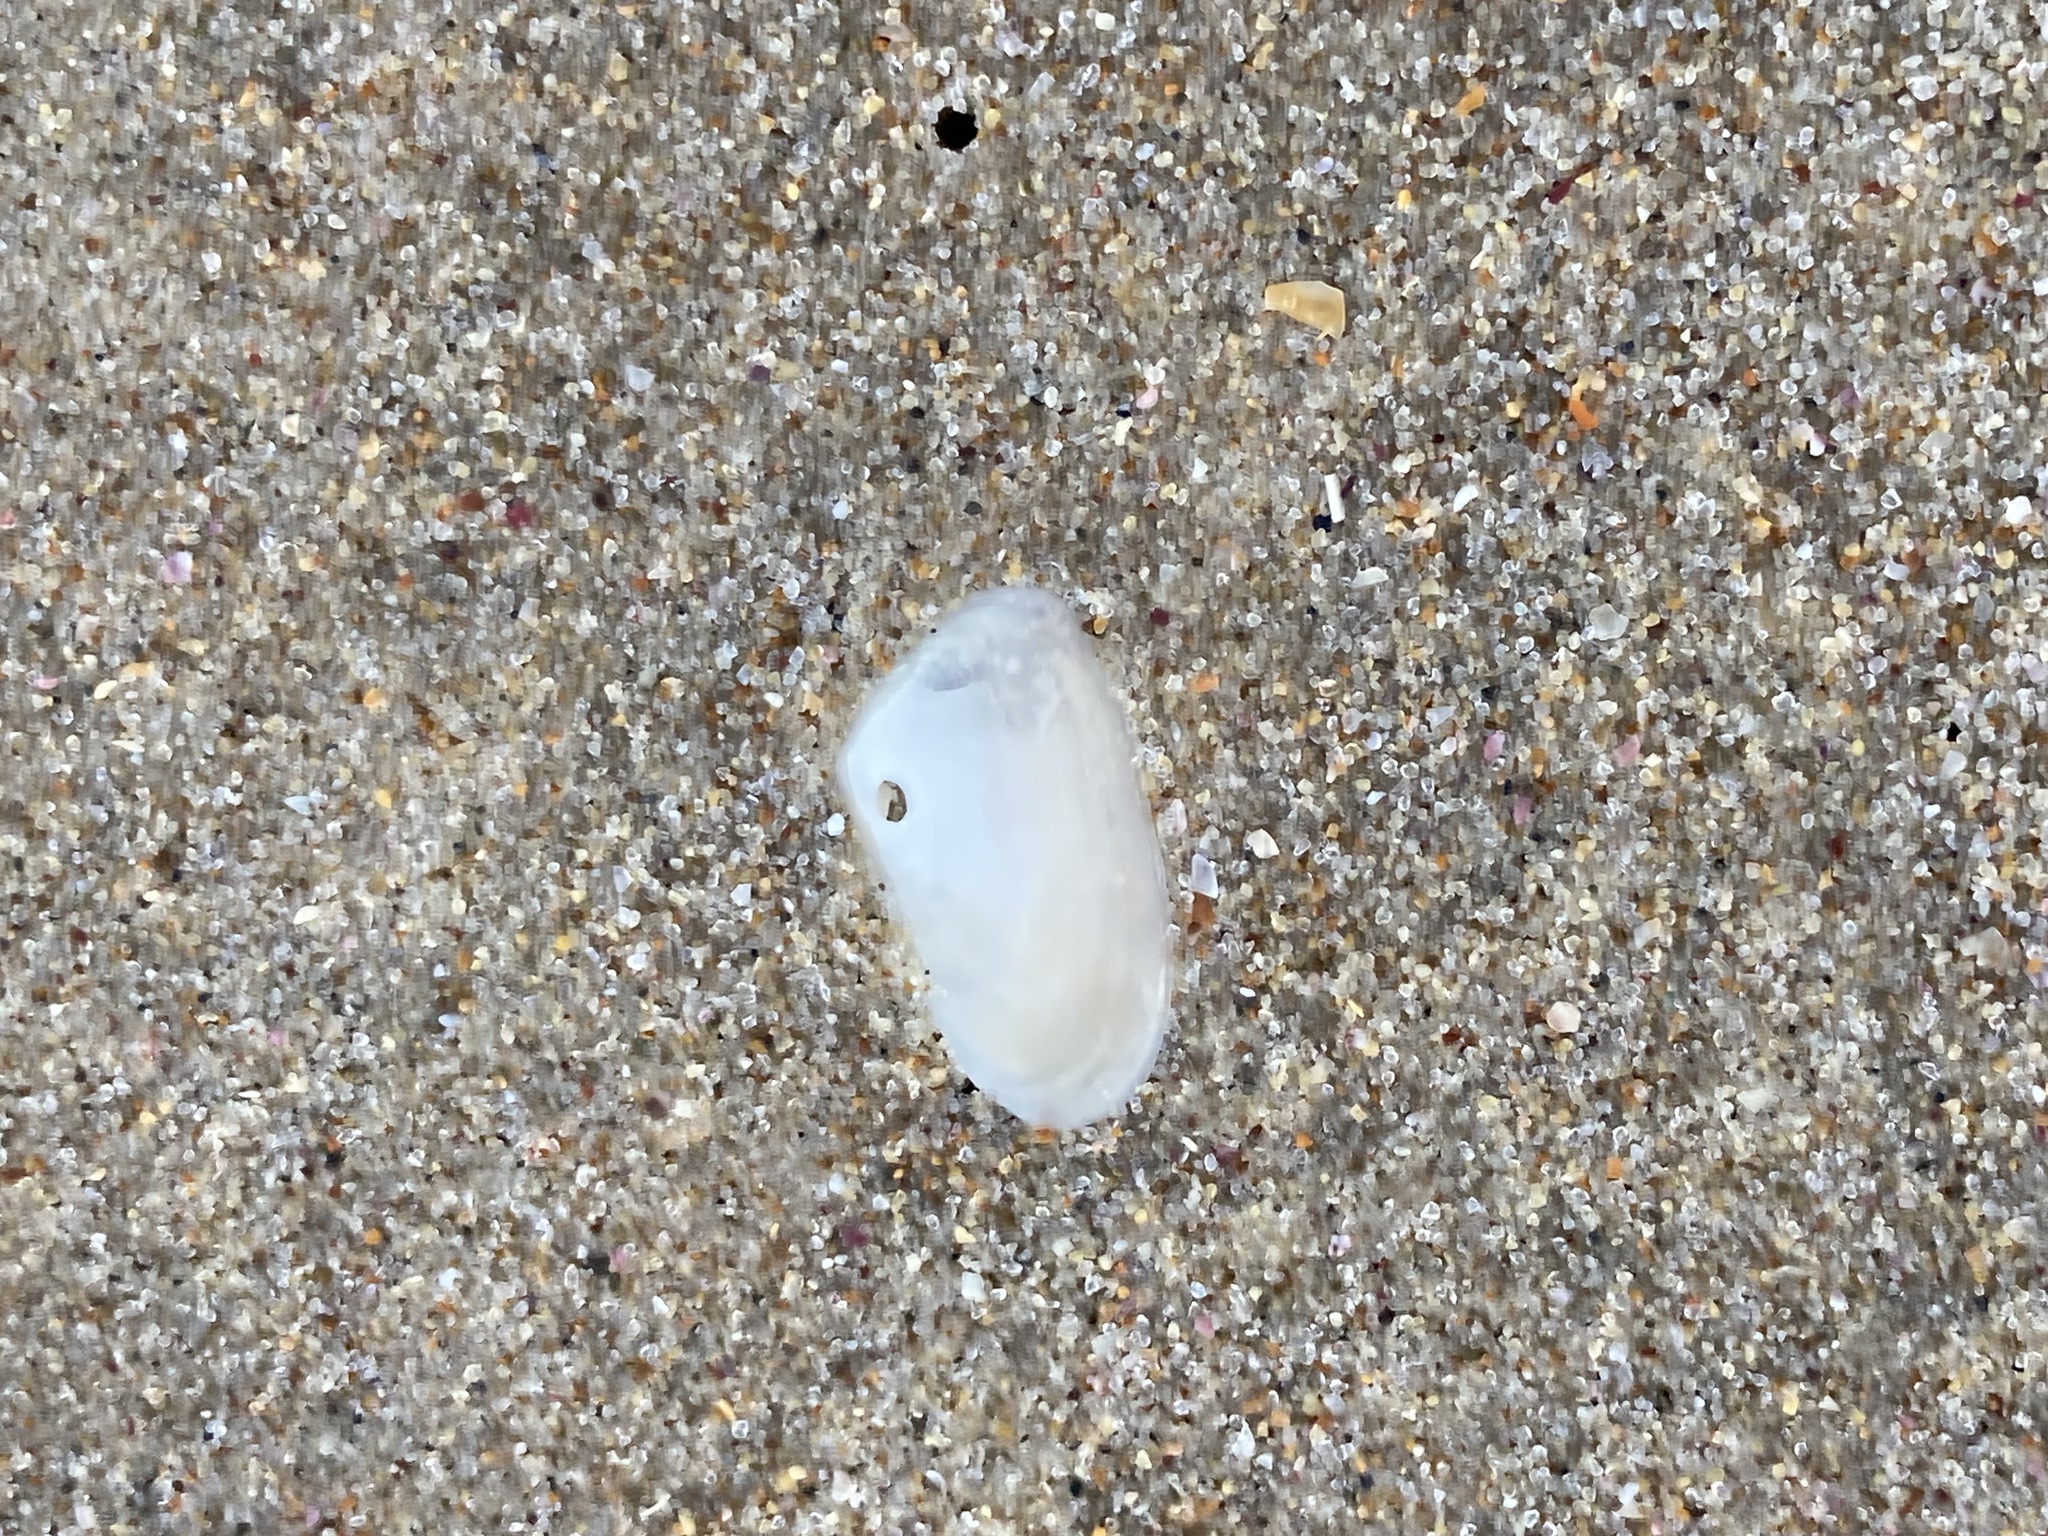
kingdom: Animalia
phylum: Mollusca
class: Bivalvia
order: Venerida
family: Mesodesmatidae
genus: Paphies
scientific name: Paphies angusta
